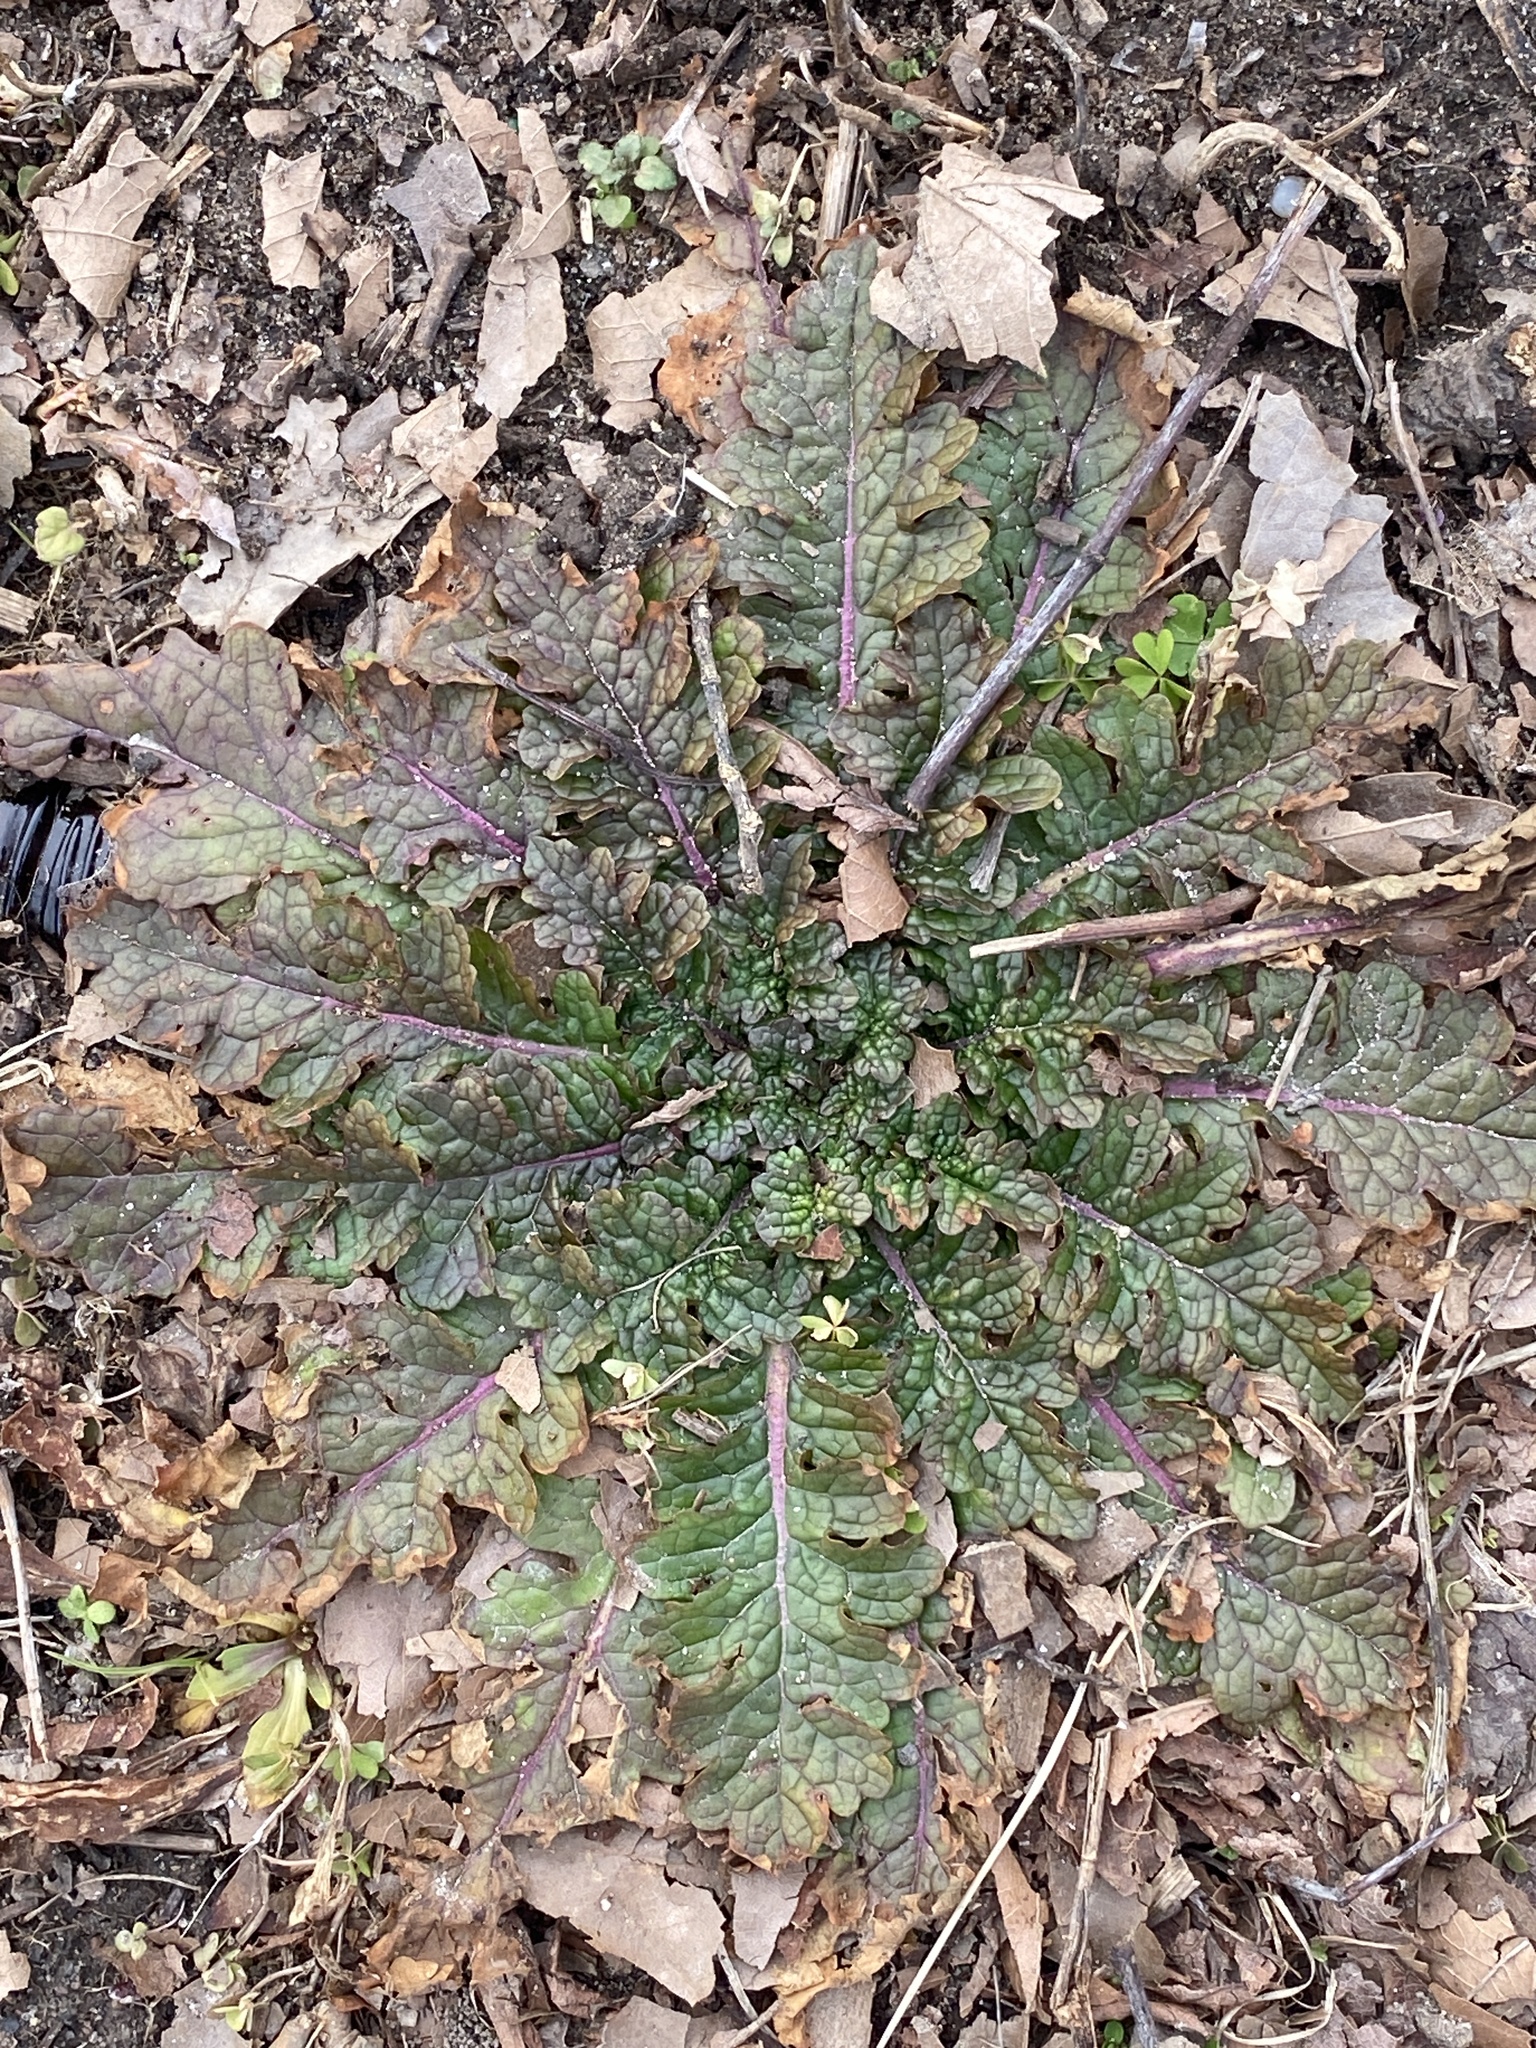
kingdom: Plantae
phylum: Tracheophyta
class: Magnoliopsida
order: Lamiales
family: Scrophulariaceae
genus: Verbascum
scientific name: Verbascum blattaria
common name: Moth mullein
